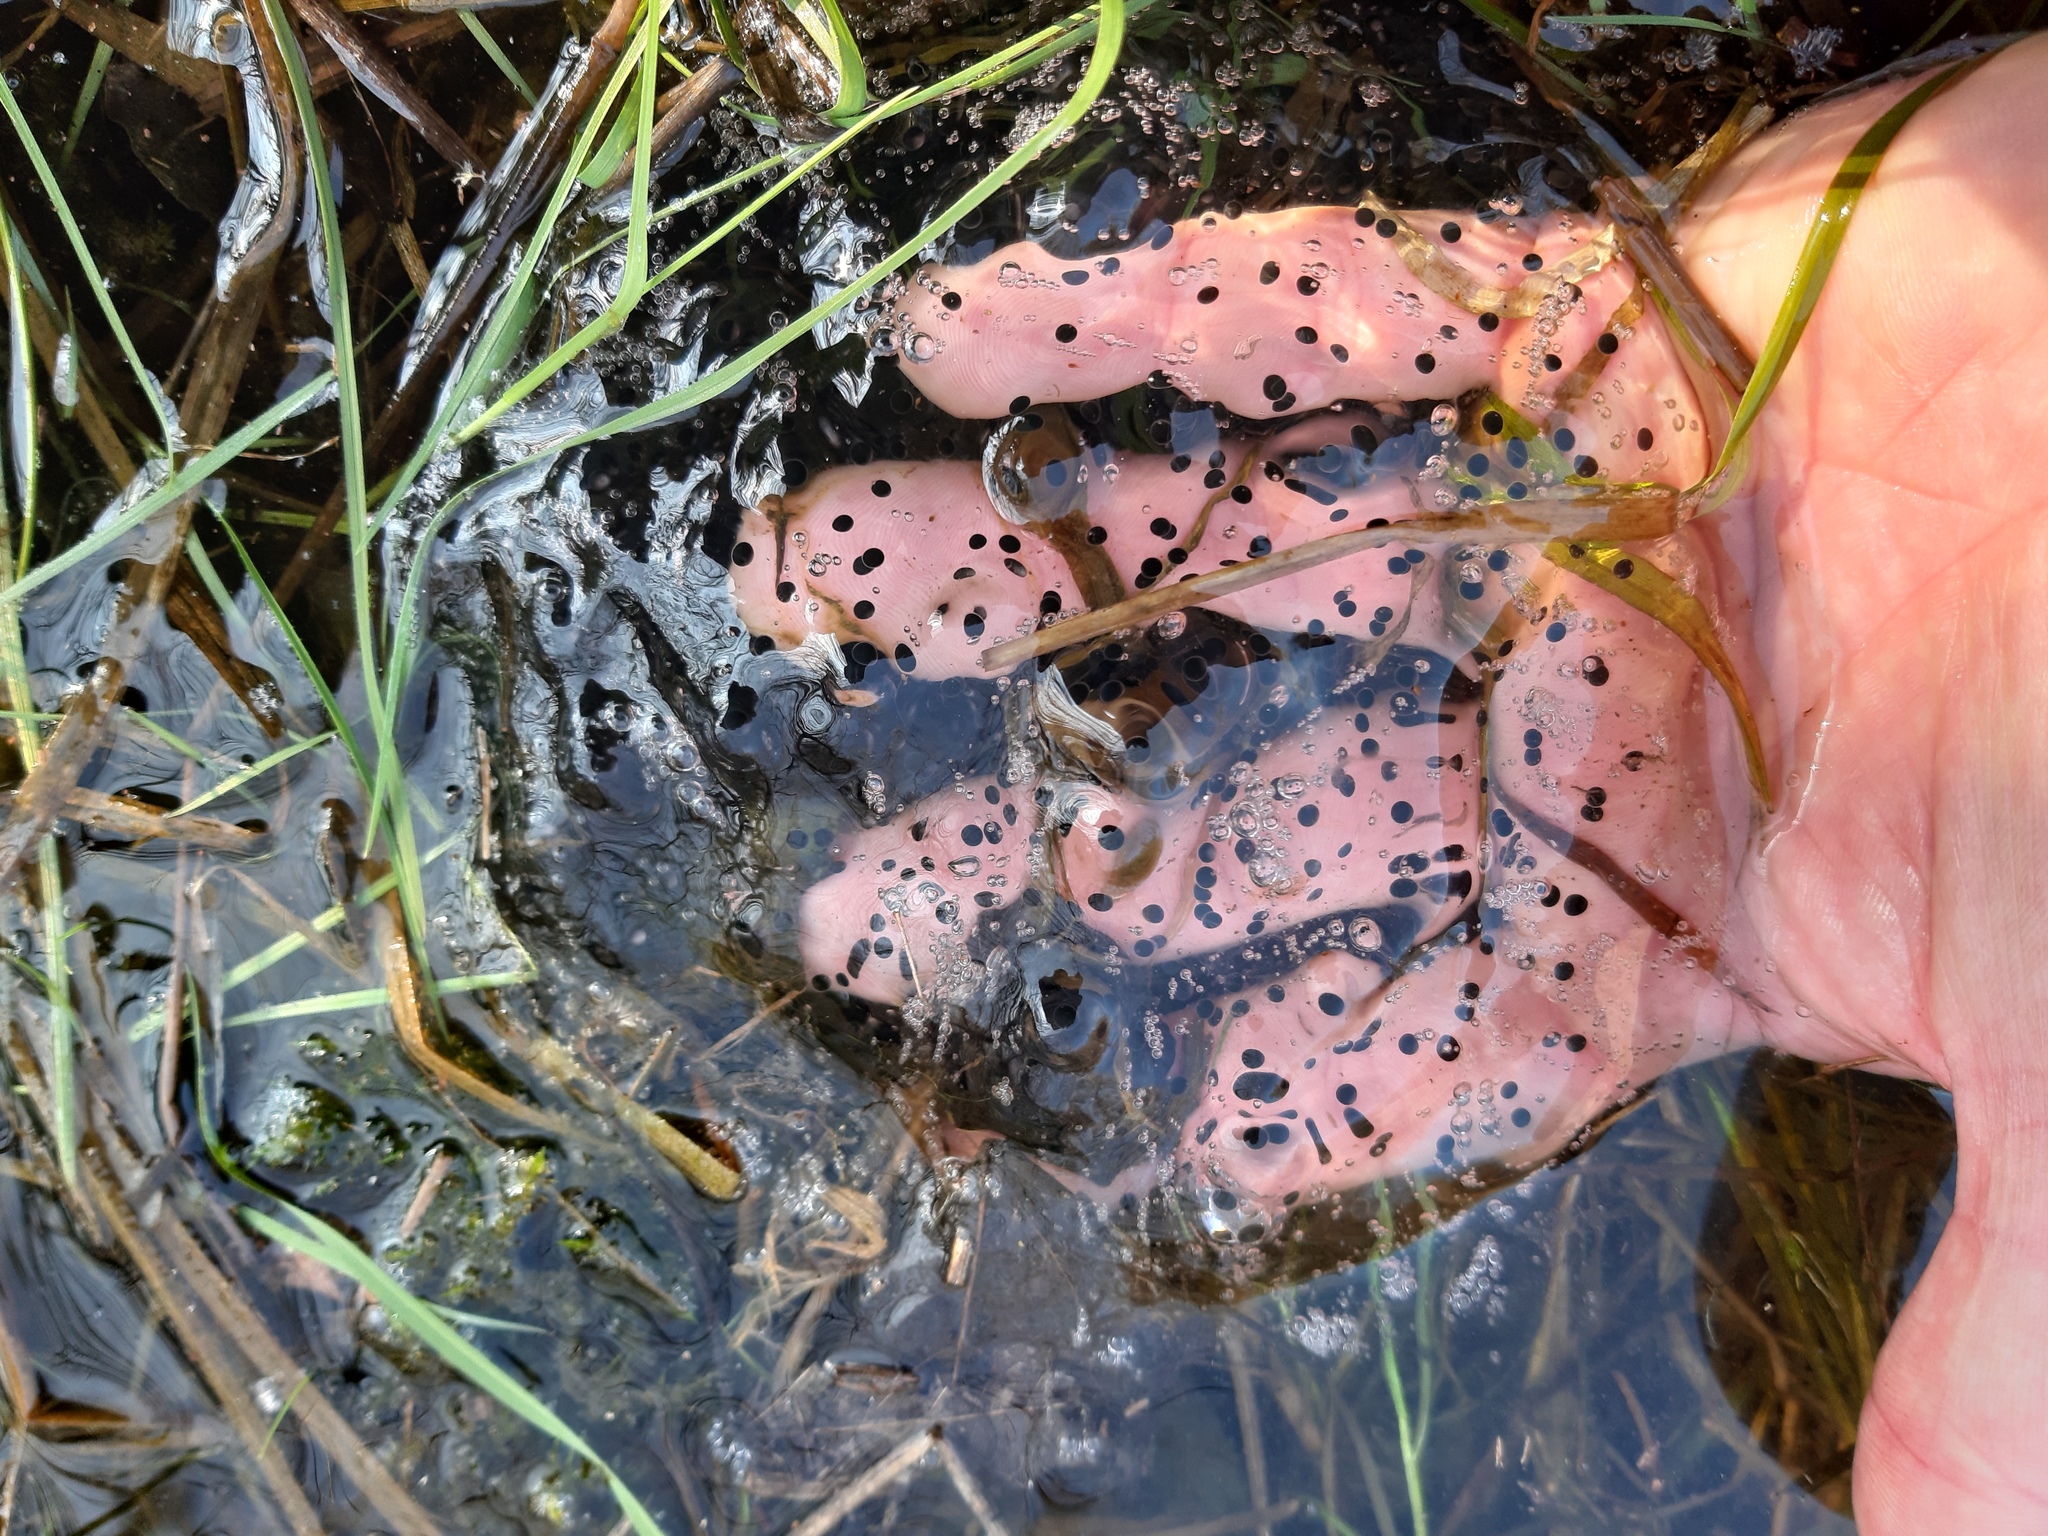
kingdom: Animalia
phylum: Chordata
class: Amphibia
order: Anura
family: Ranidae
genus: Rana
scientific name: Rana dalmatina
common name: Agile frog
